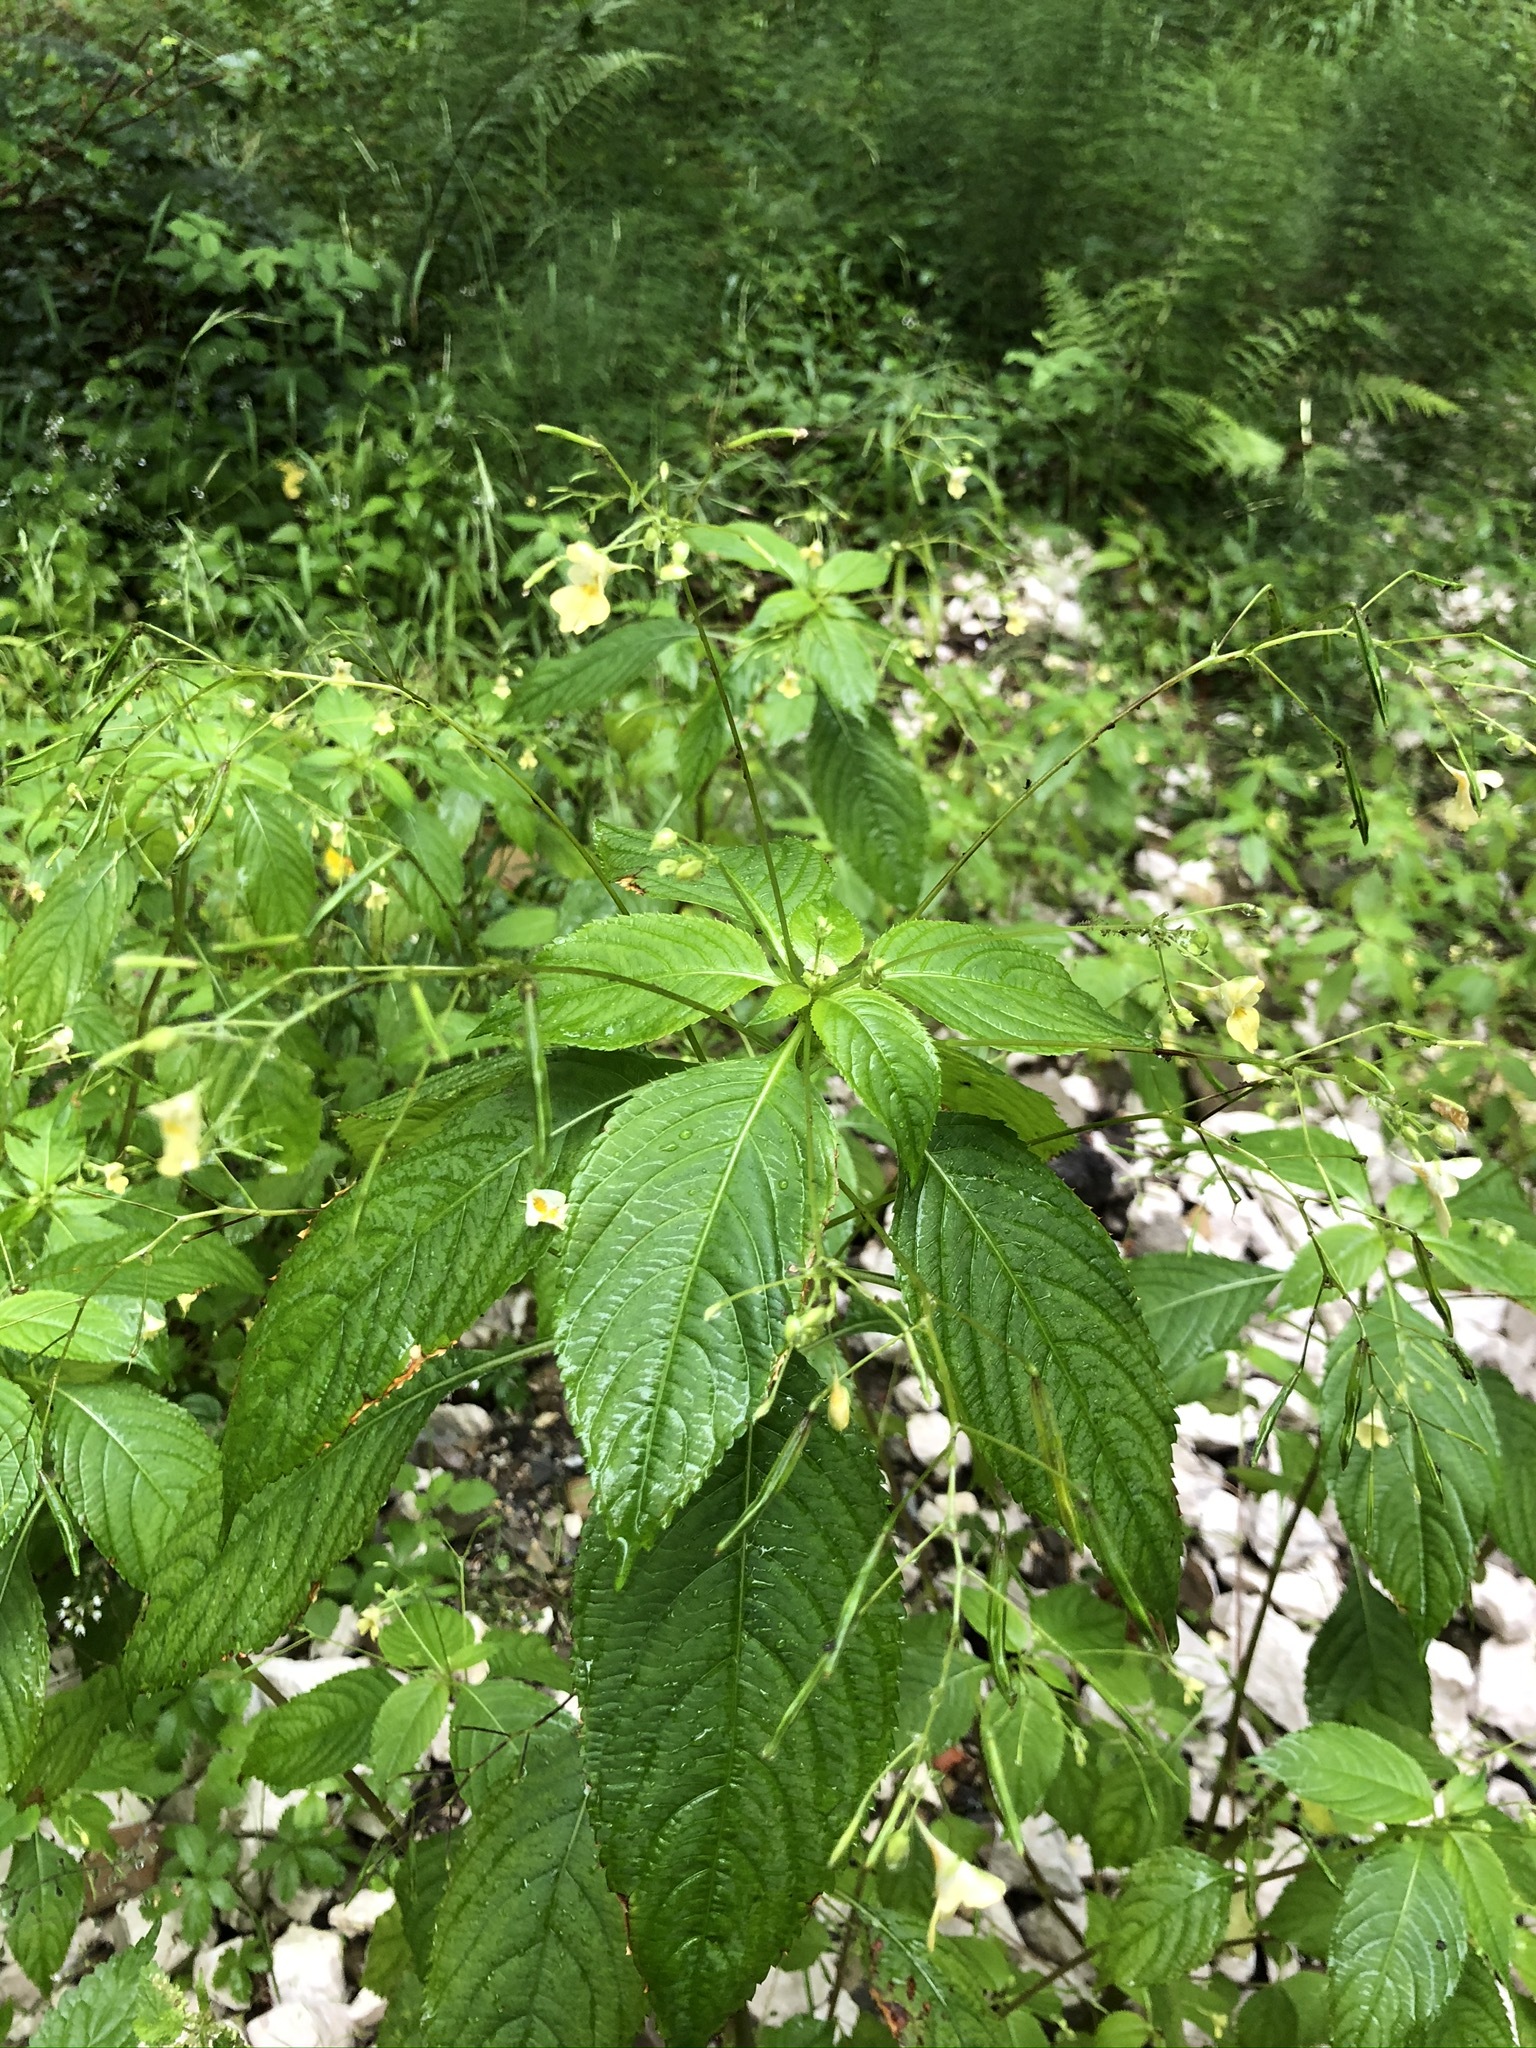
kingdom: Plantae
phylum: Tracheophyta
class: Magnoliopsida
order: Ericales
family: Balsaminaceae
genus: Impatiens
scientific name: Impatiens parviflora
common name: Small balsam
